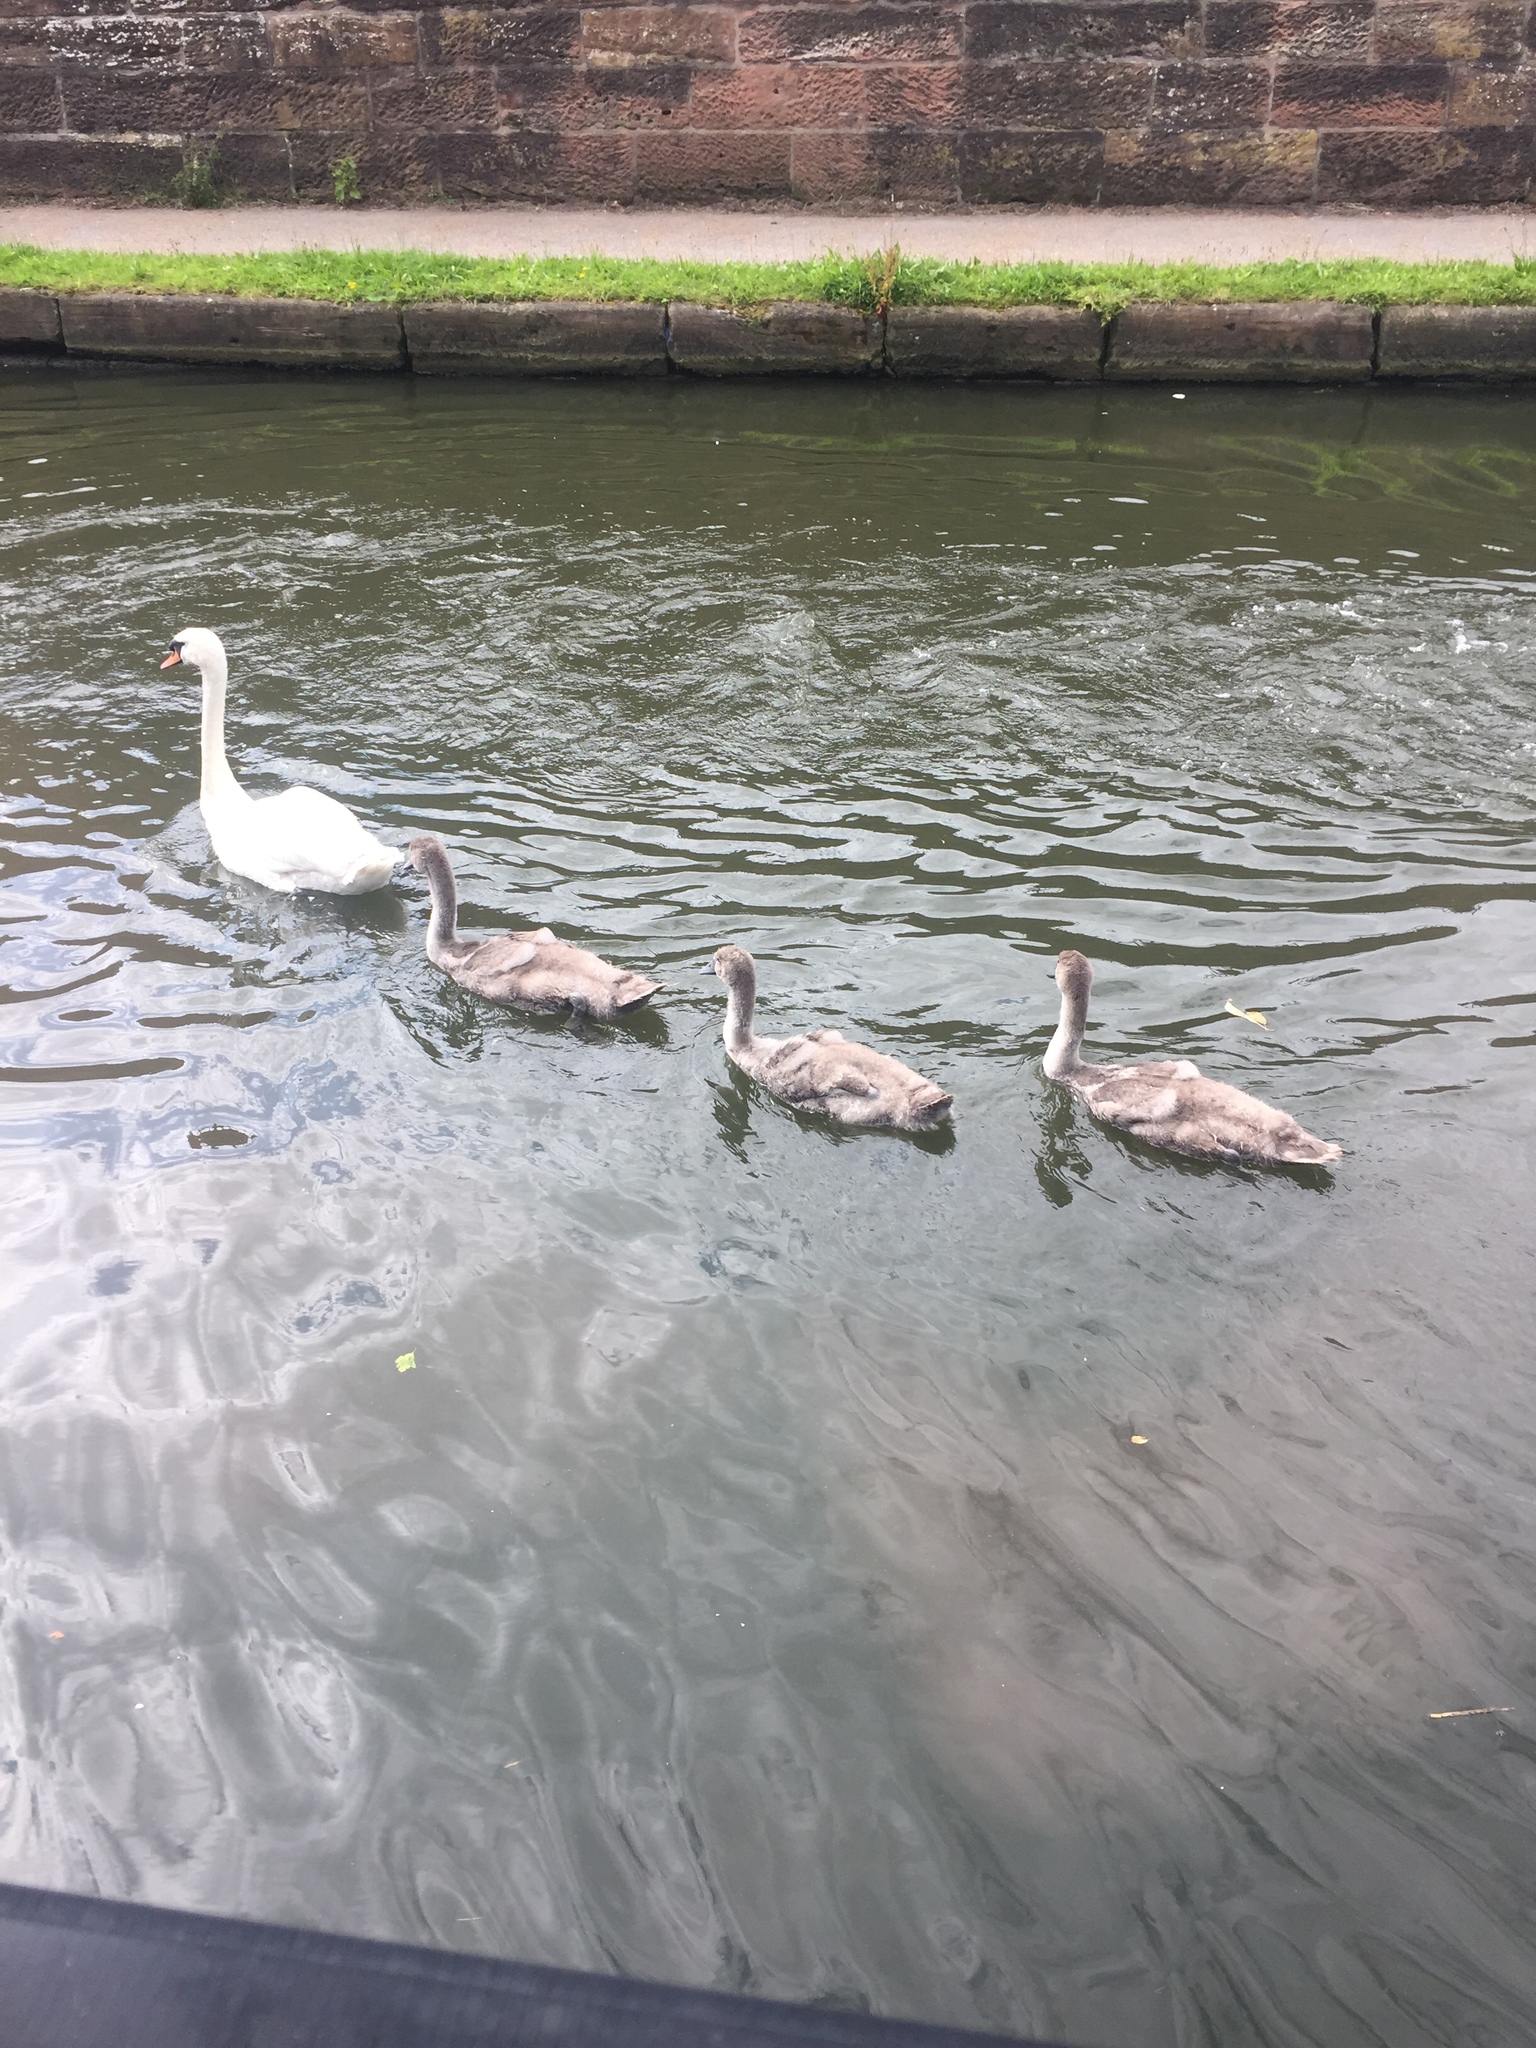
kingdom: Animalia
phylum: Chordata
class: Aves
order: Anseriformes
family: Anatidae
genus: Cygnus
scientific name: Cygnus olor
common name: Mute swan
